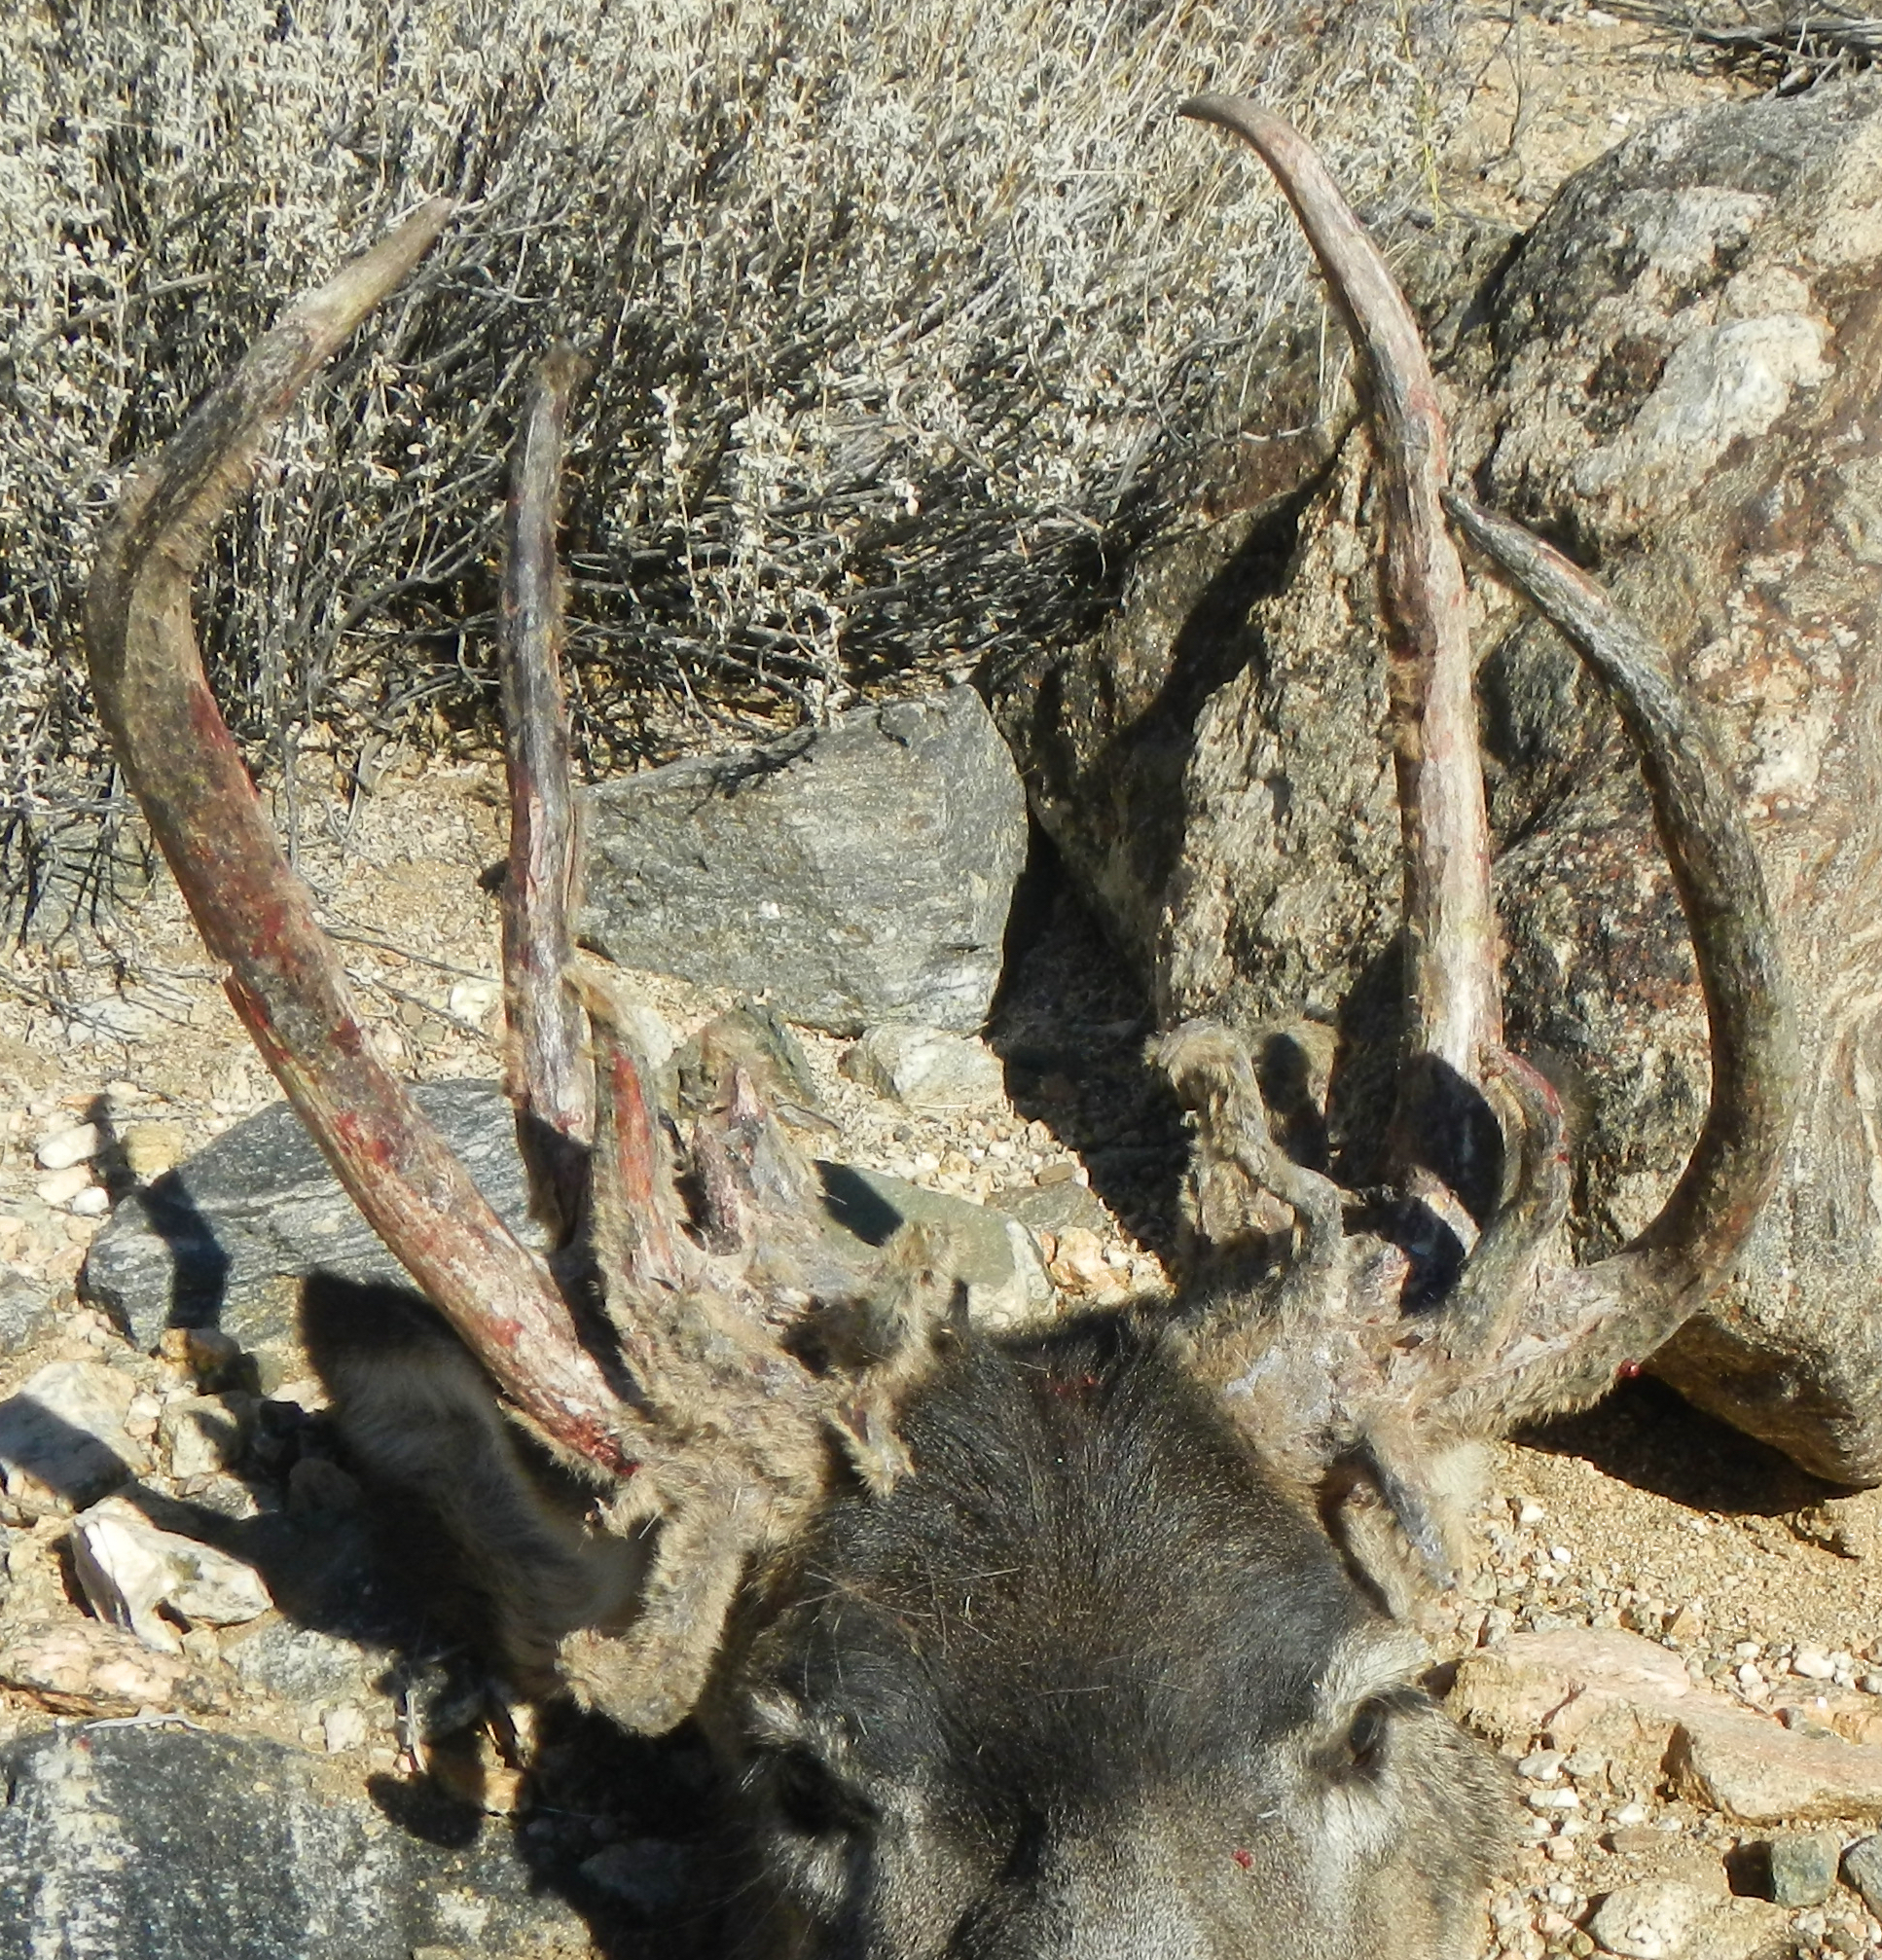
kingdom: Animalia
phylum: Chordata
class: Mammalia
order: Artiodactyla
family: Cervidae
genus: Odocoileus
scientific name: Odocoileus hemionus
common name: Mule deer
